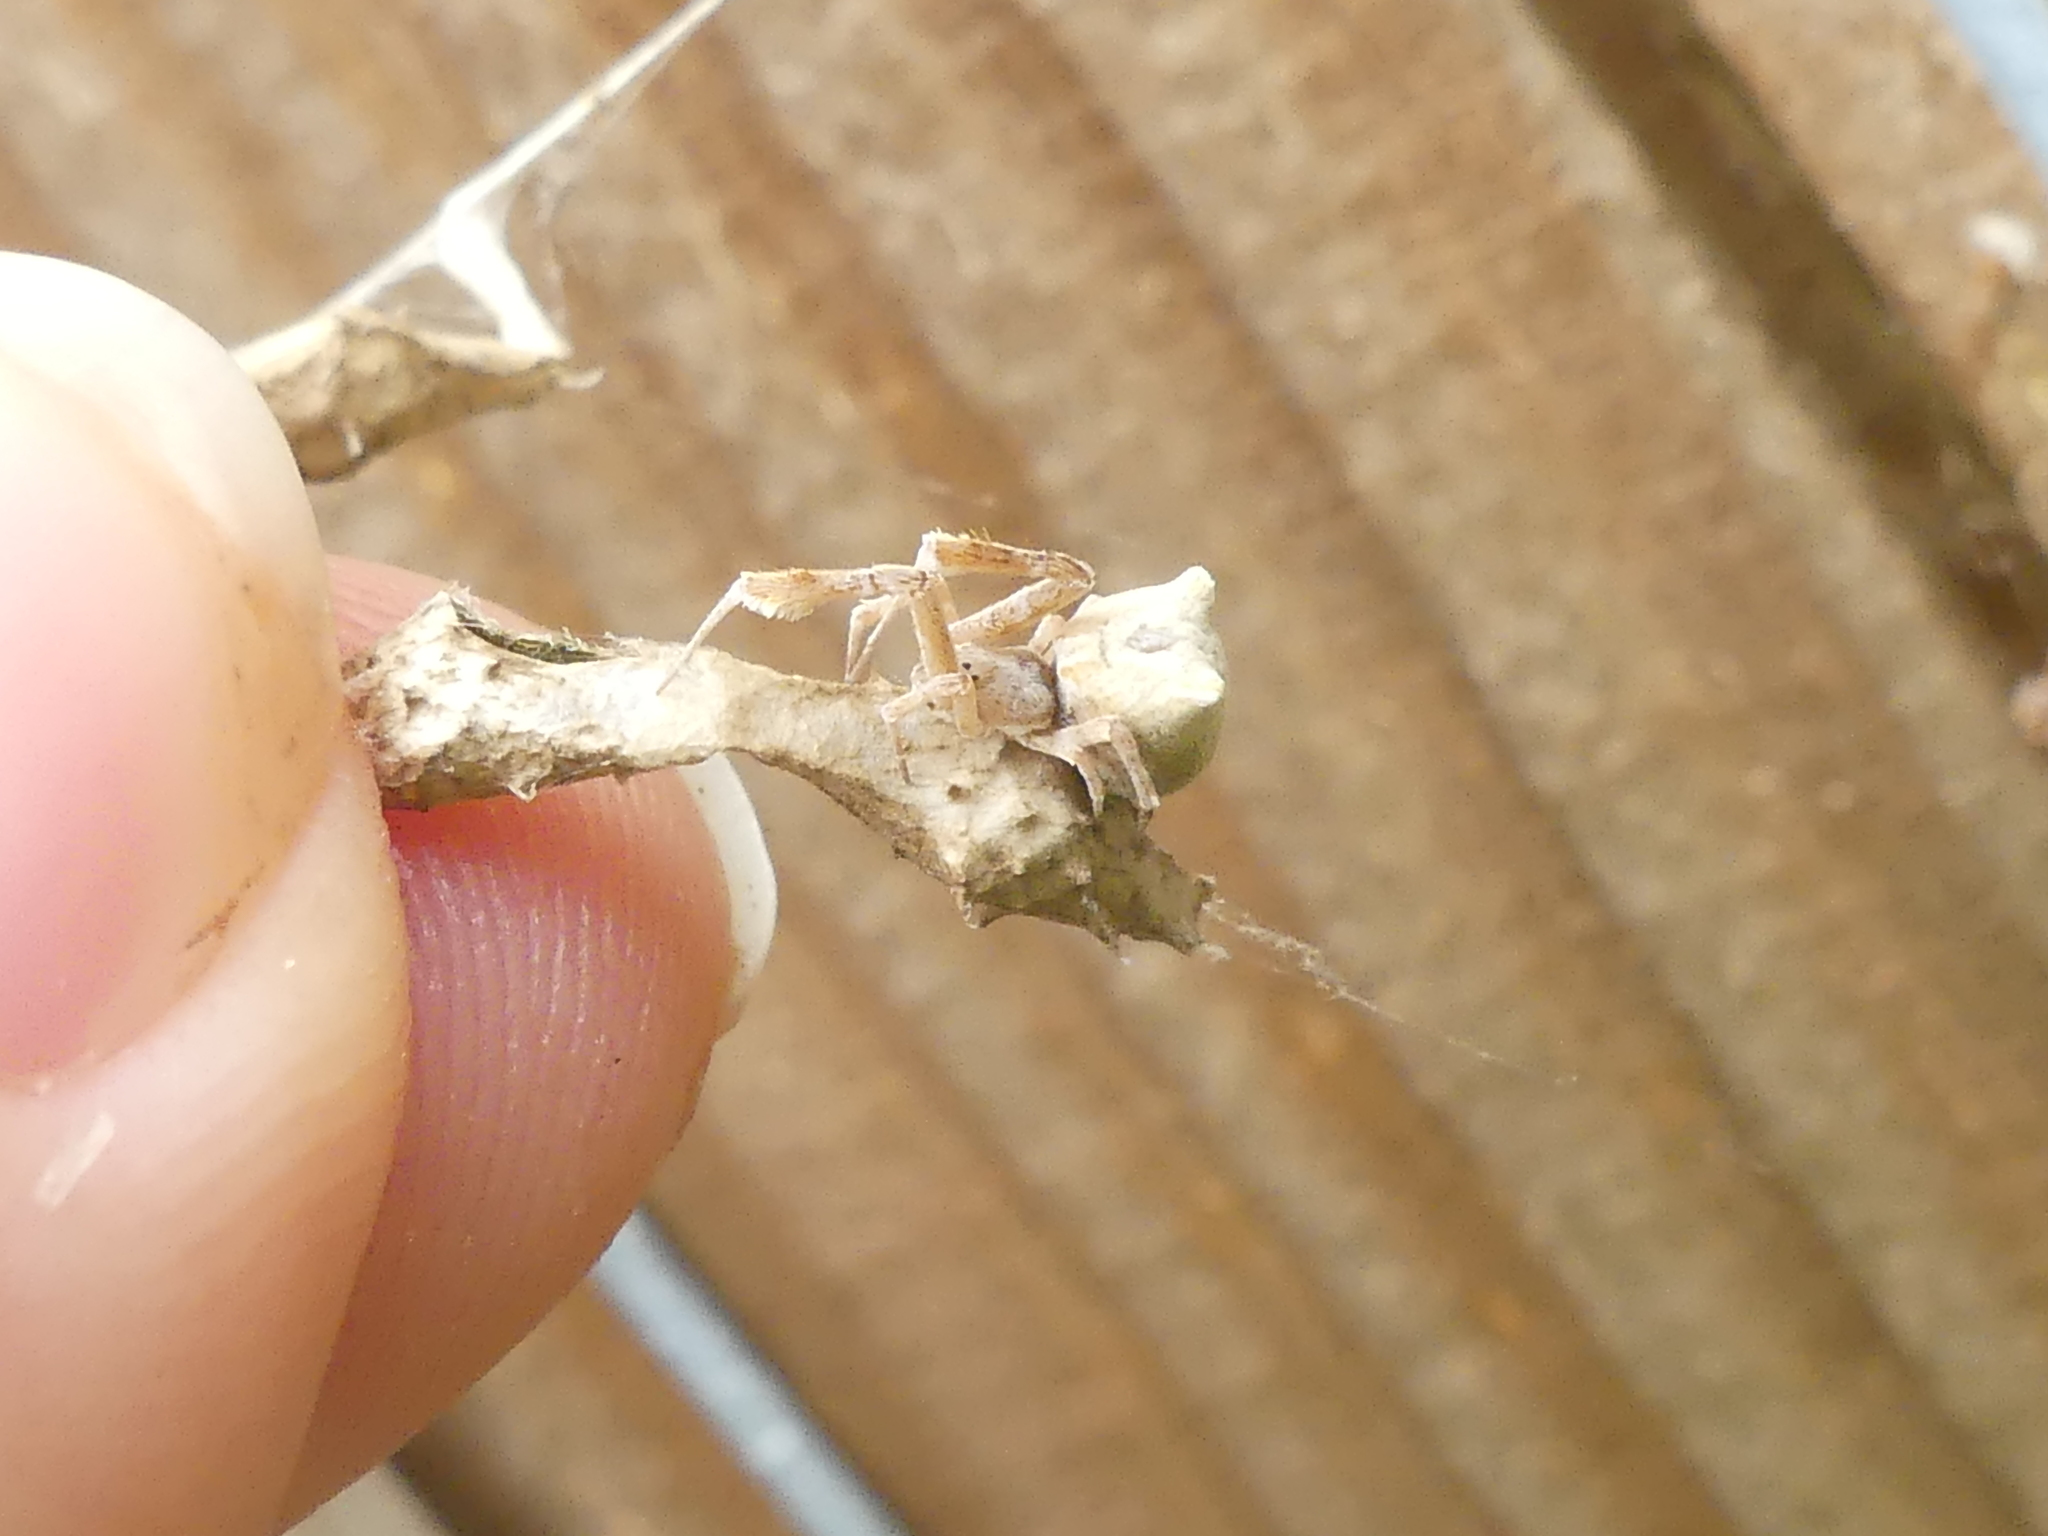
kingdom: Animalia
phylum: Arthropoda
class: Arachnida
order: Araneae
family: Uloboridae
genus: Uloborus
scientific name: Uloborus glomosus
